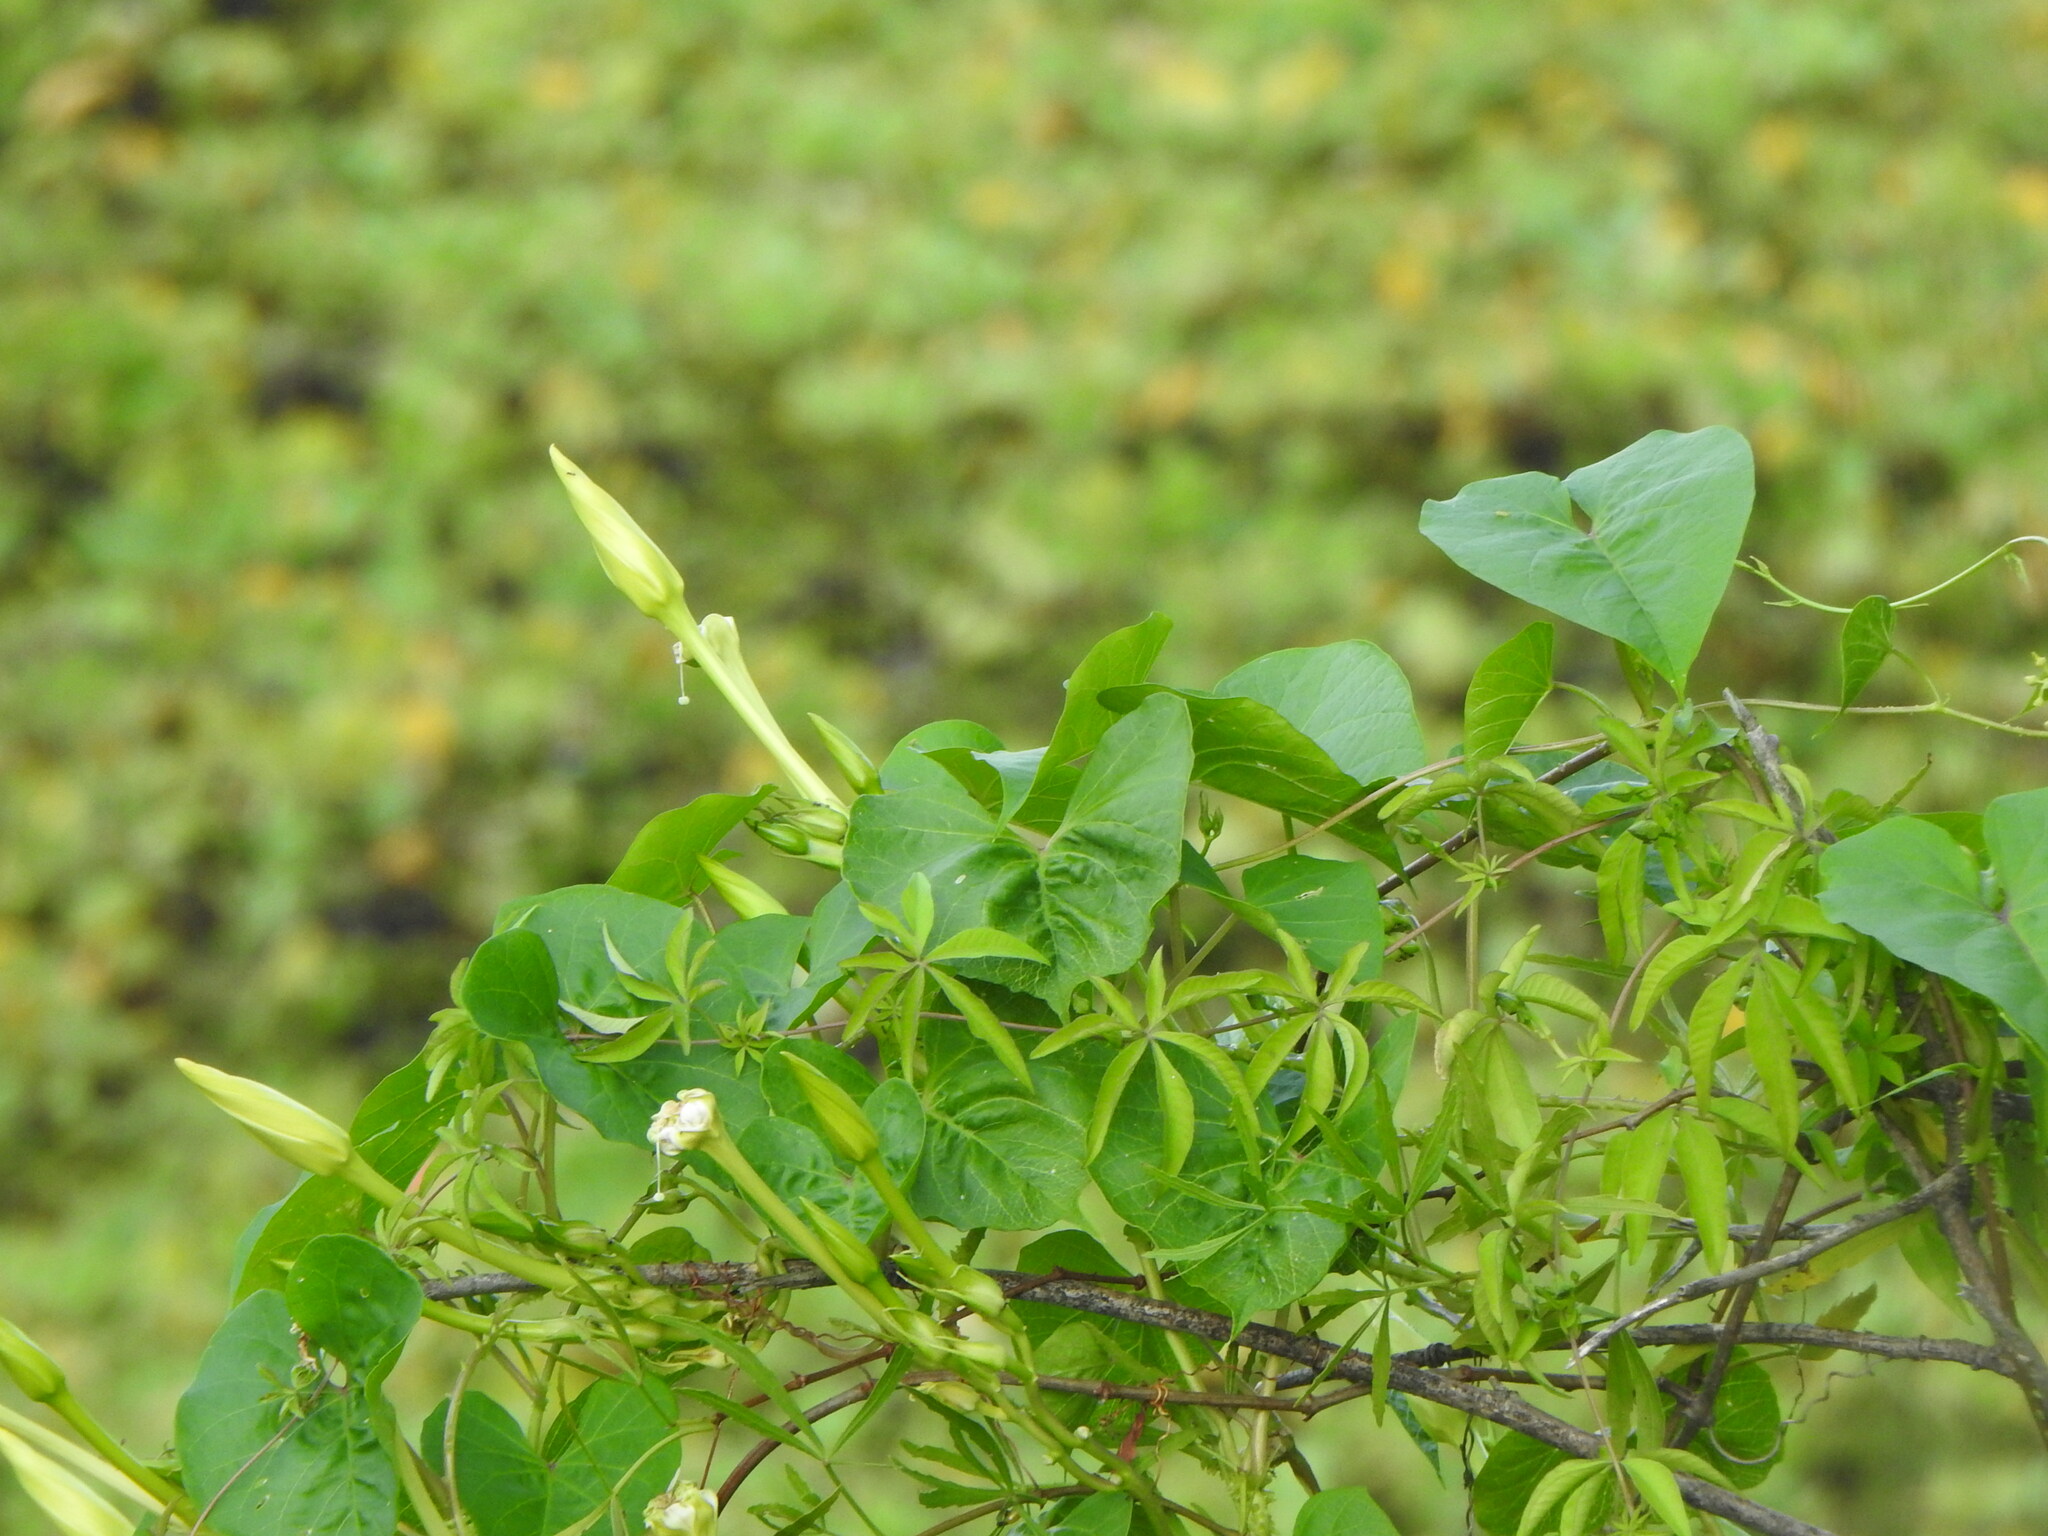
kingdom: Plantae
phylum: Tracheophyta
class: Magnoliopsida
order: Solanales
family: Convolvulaceae
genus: Ipomoea
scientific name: Ipomoea alba
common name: Moonflower
